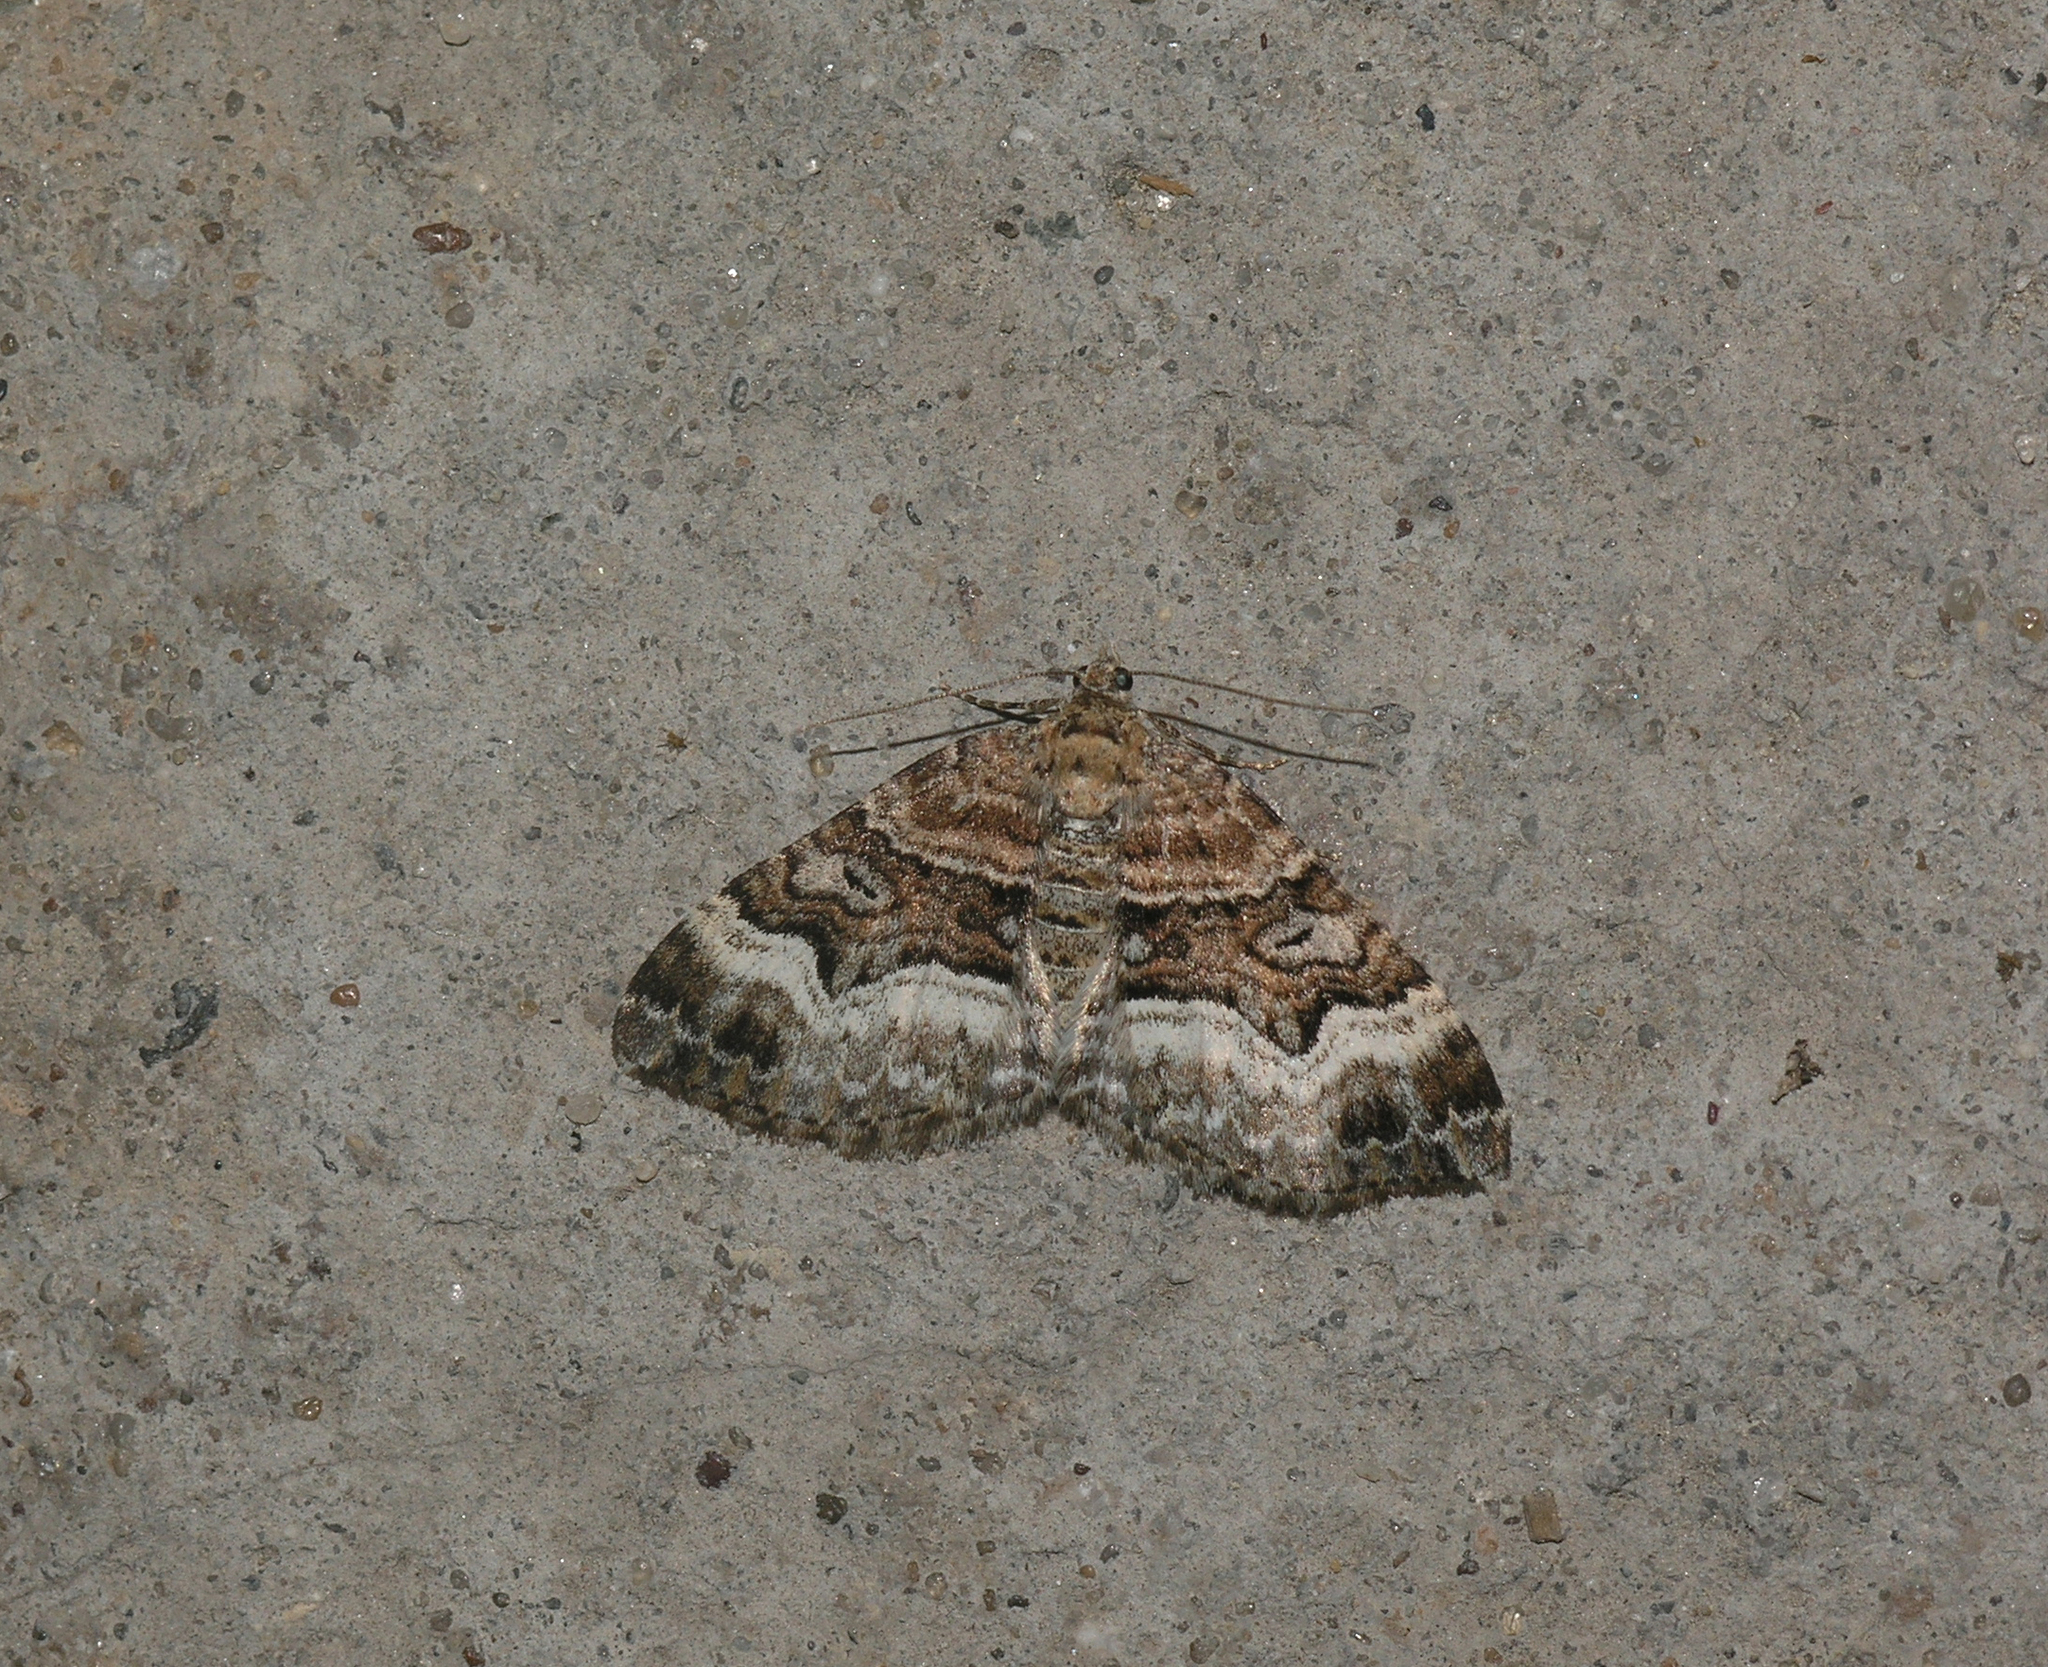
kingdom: Animalia
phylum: Arthropoda
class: Insecta
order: Lepidoptera
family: Geometridae
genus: Xanthorhoe
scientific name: Xanthorhoe biriviata
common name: Balsam carpet
